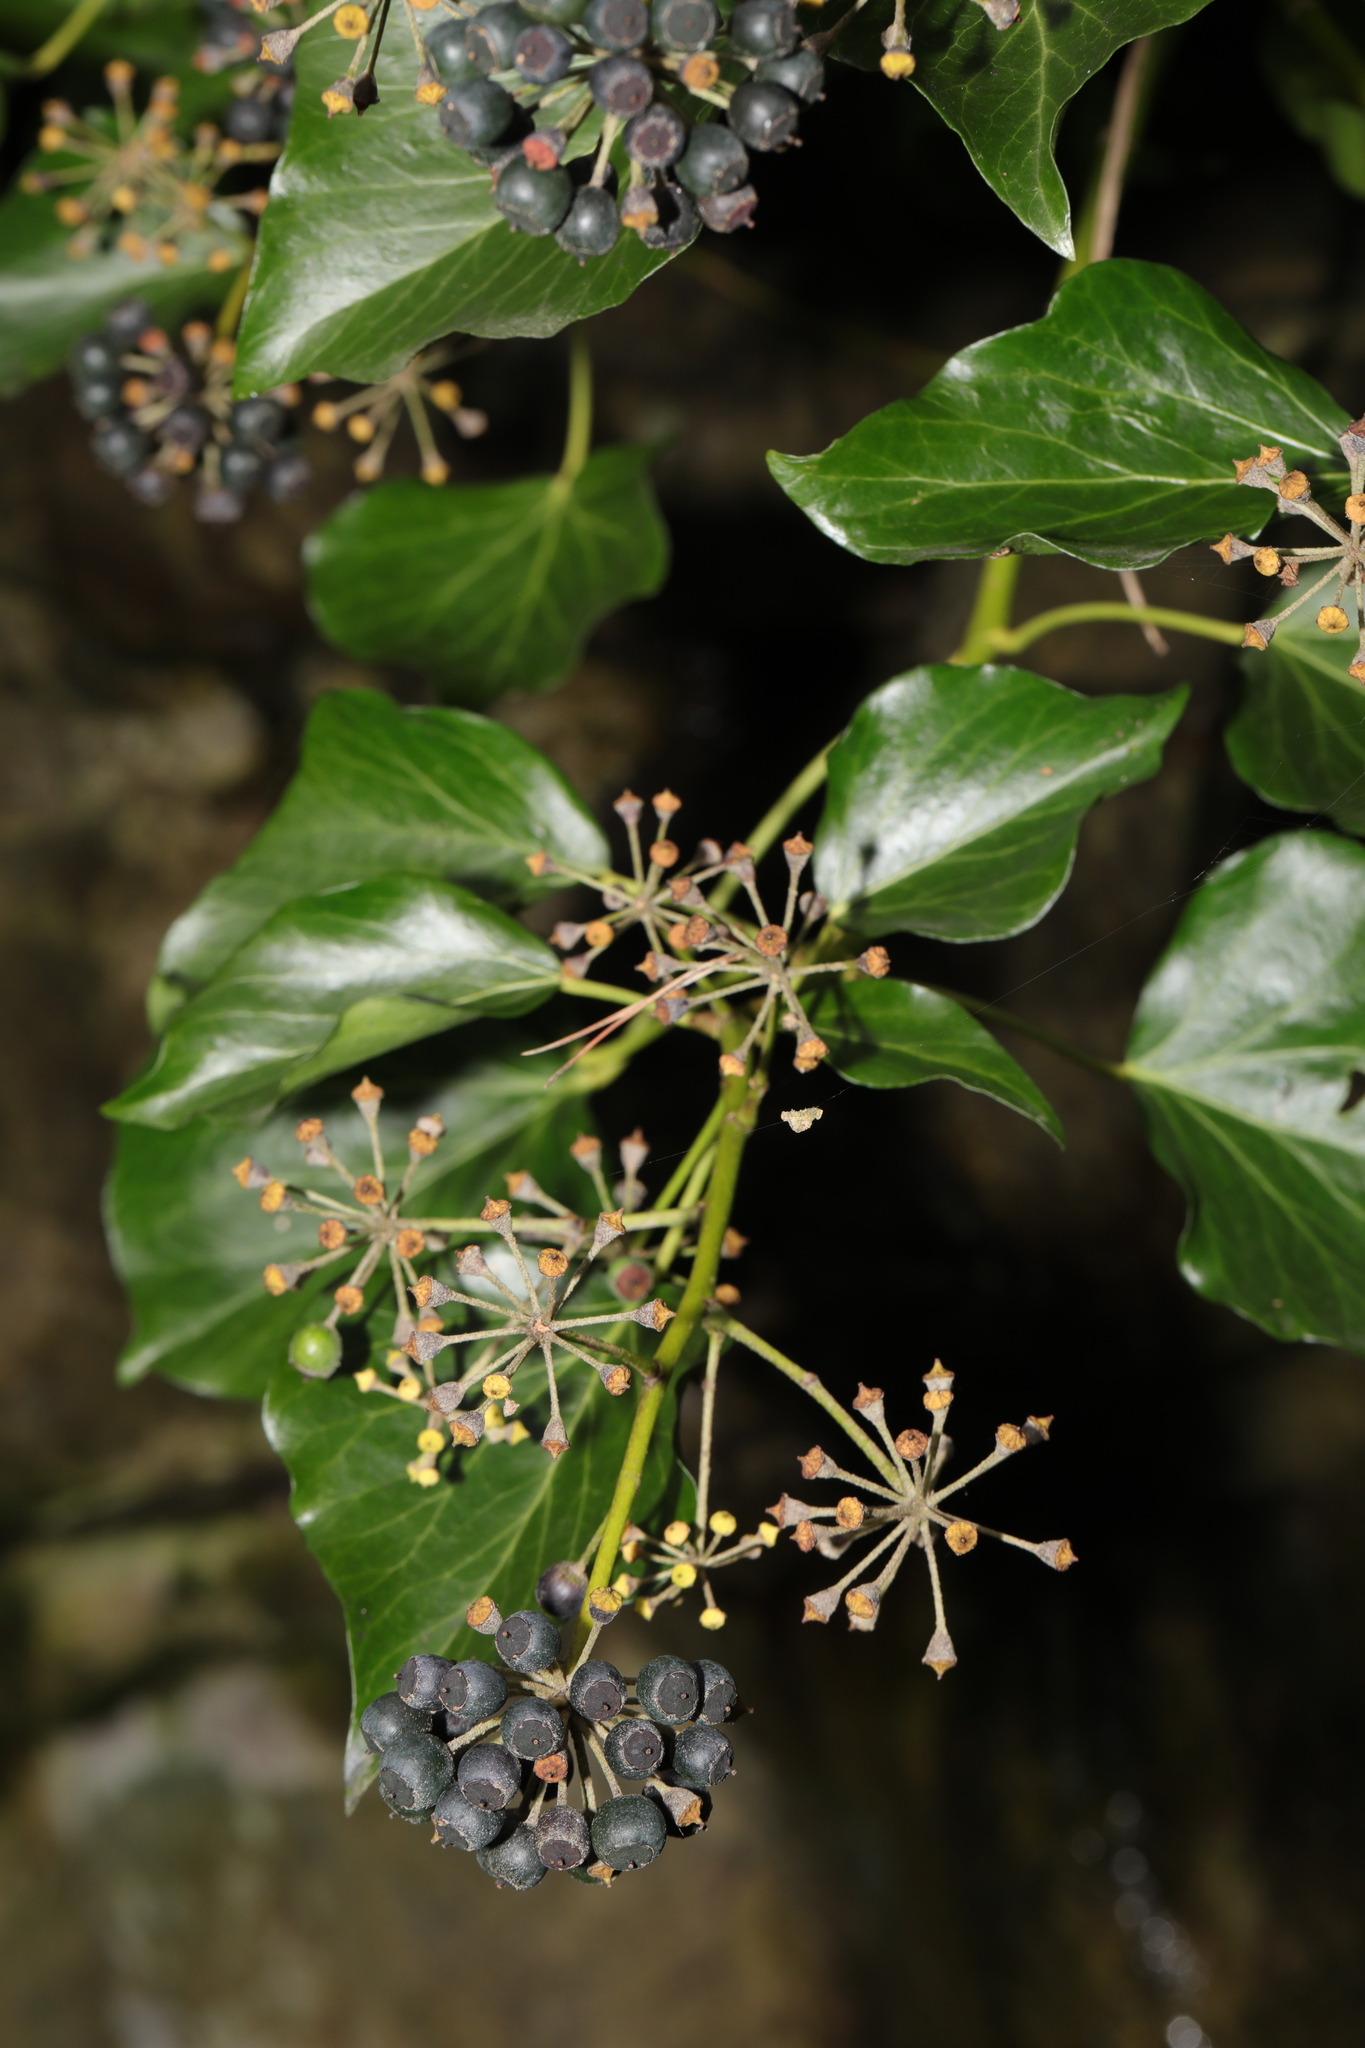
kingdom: Plantae
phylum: Tracheophyta
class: Magnoliopsida
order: Apiales
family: Araliaceae
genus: Hedera
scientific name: Hedera helix
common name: Ivy
